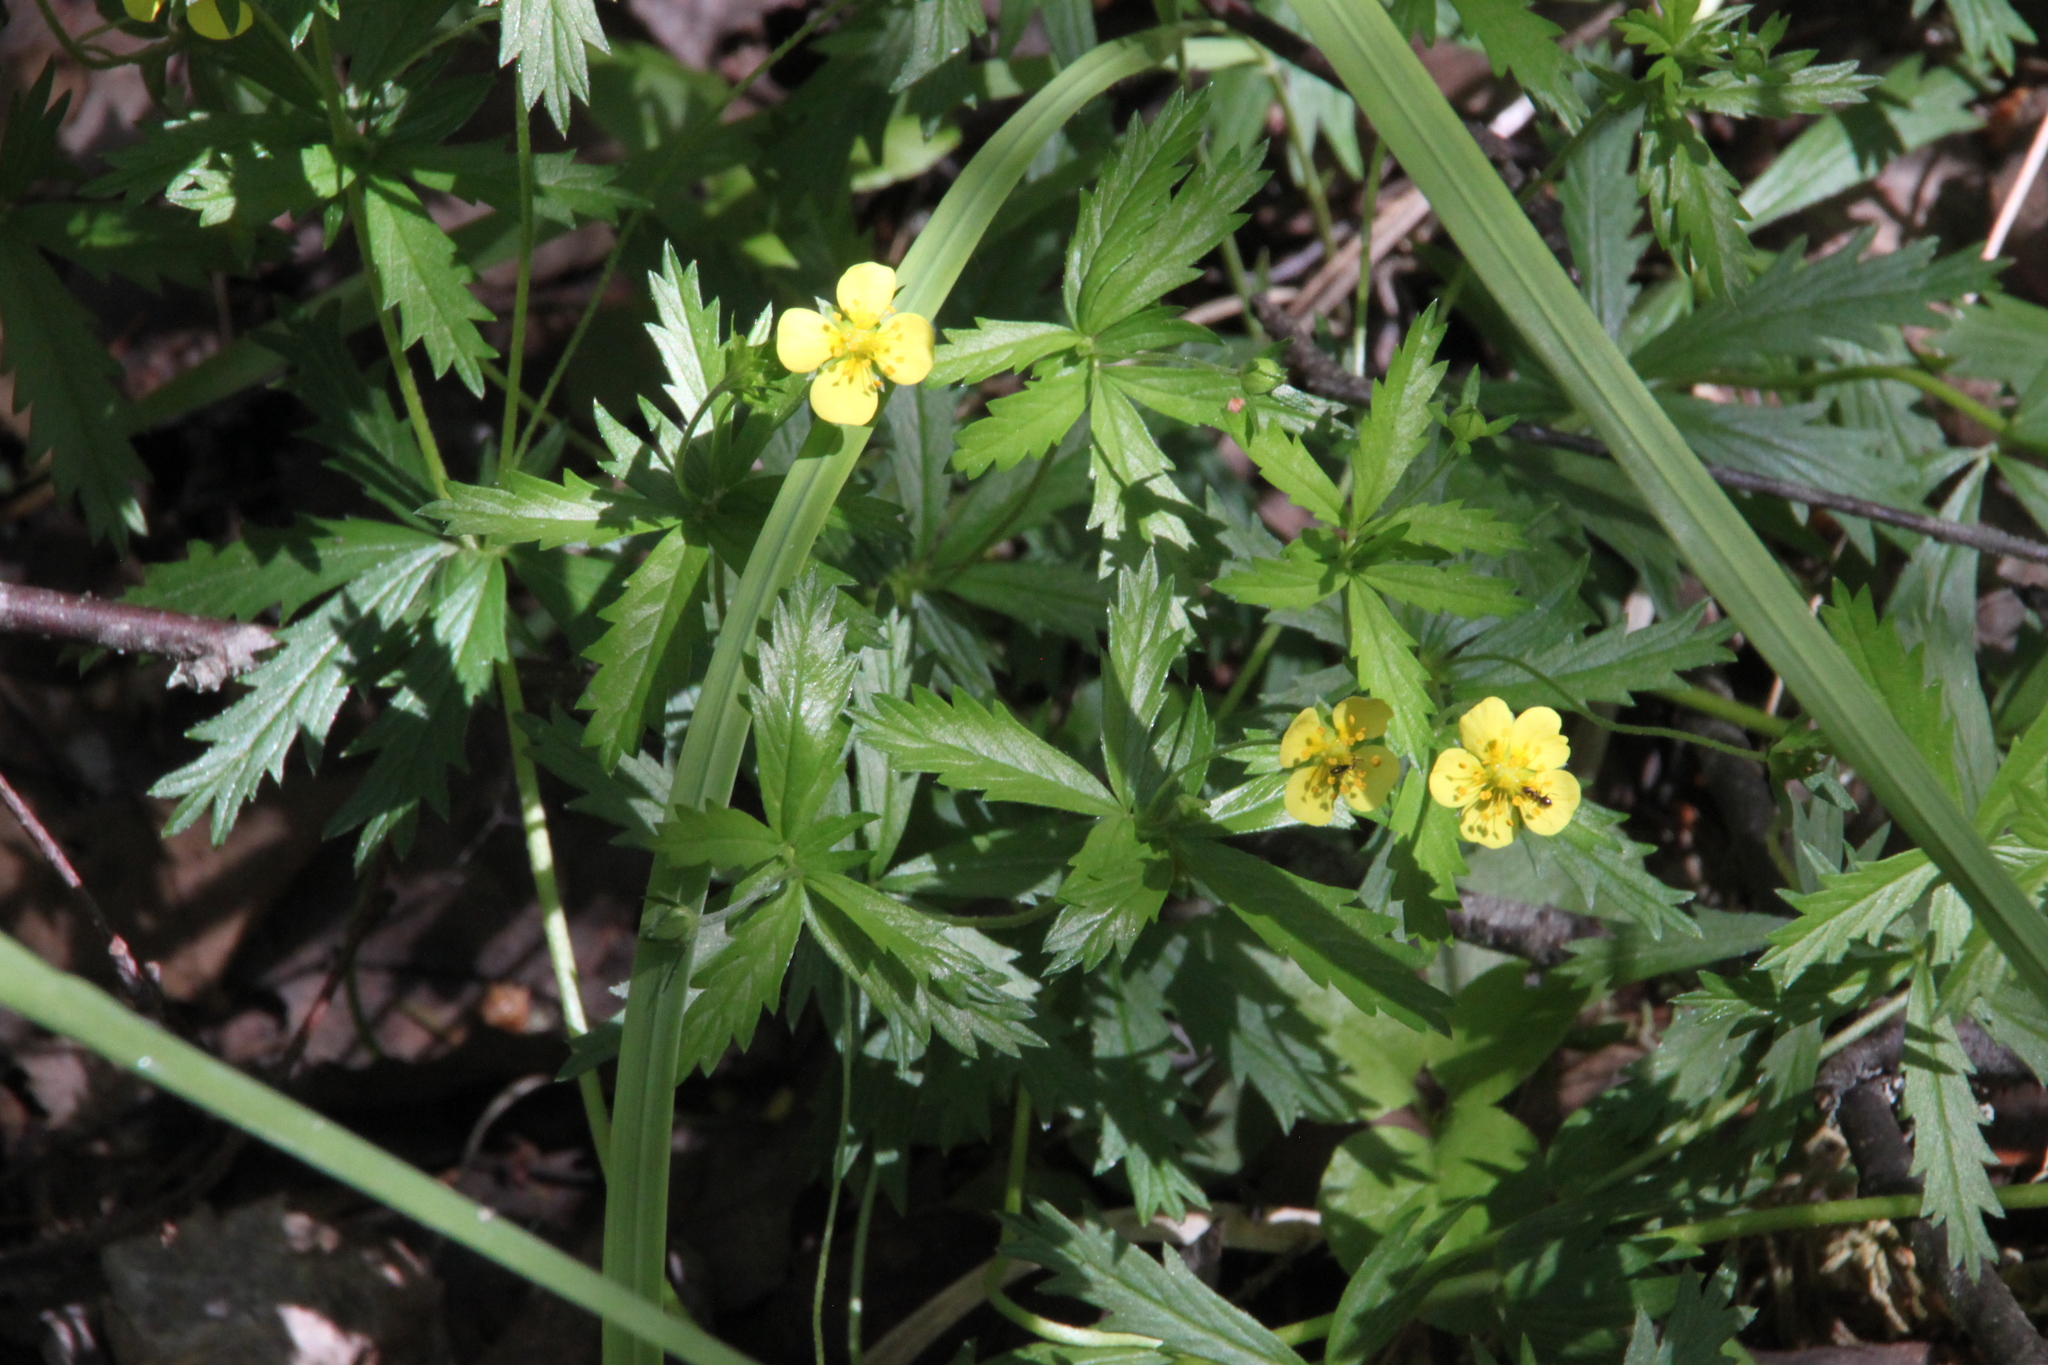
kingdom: Plantae
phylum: Tracheophyta
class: Magnoliopsida
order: Rosales
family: Rosaceae
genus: Potentilla
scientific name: Potentilla erecta
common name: Tormentil
